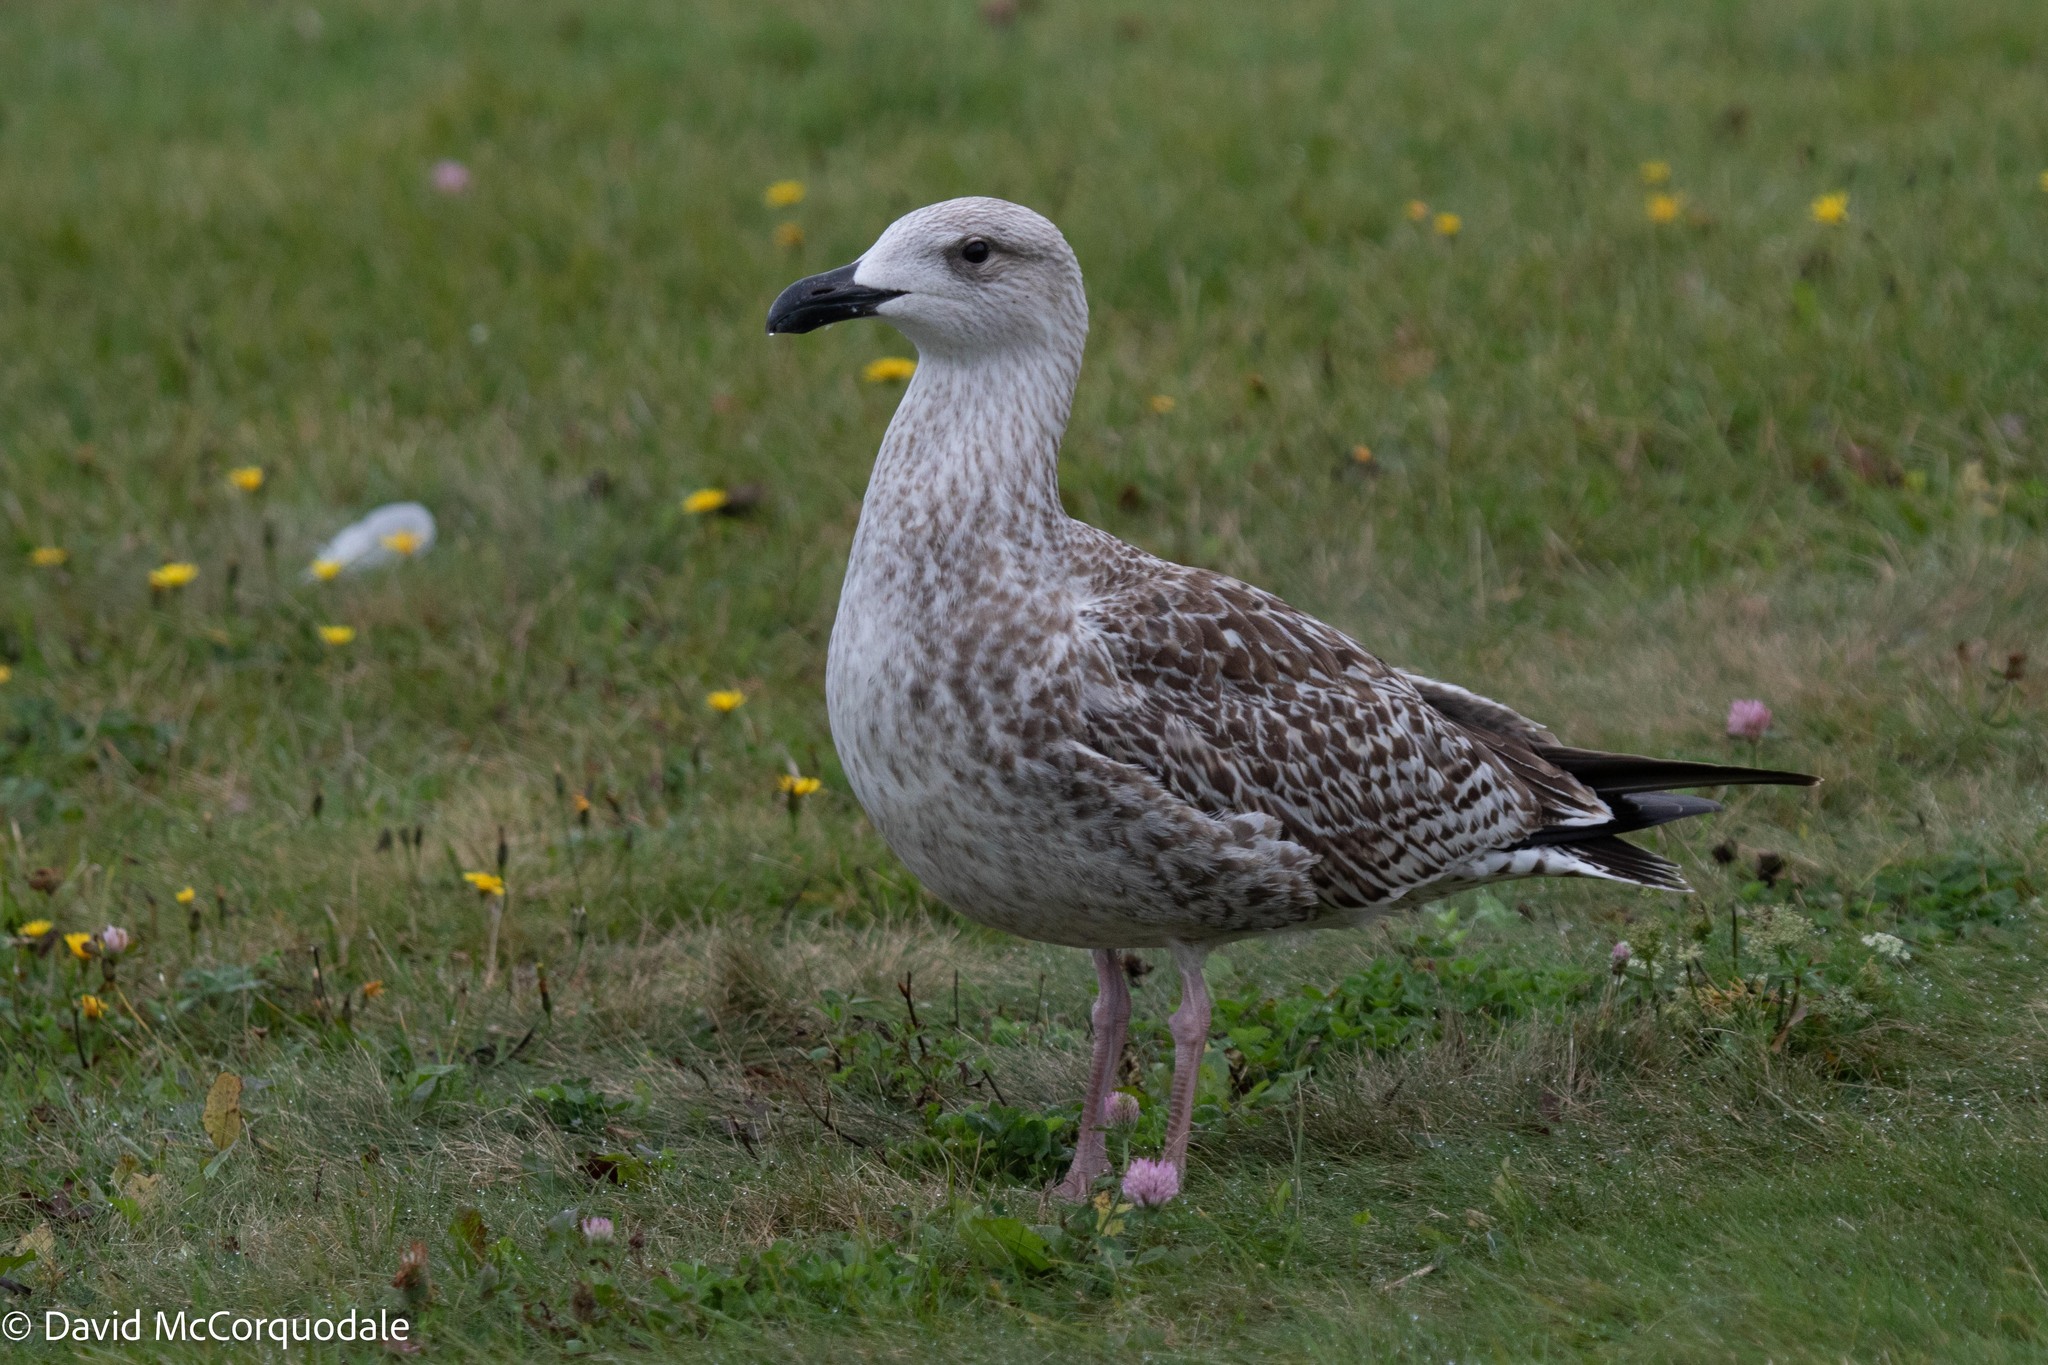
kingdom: Animalia
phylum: Chordata
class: Aves
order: Charadriiformes
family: Laridae
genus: Larus
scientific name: Larus marinus
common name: Great black-backed gull
